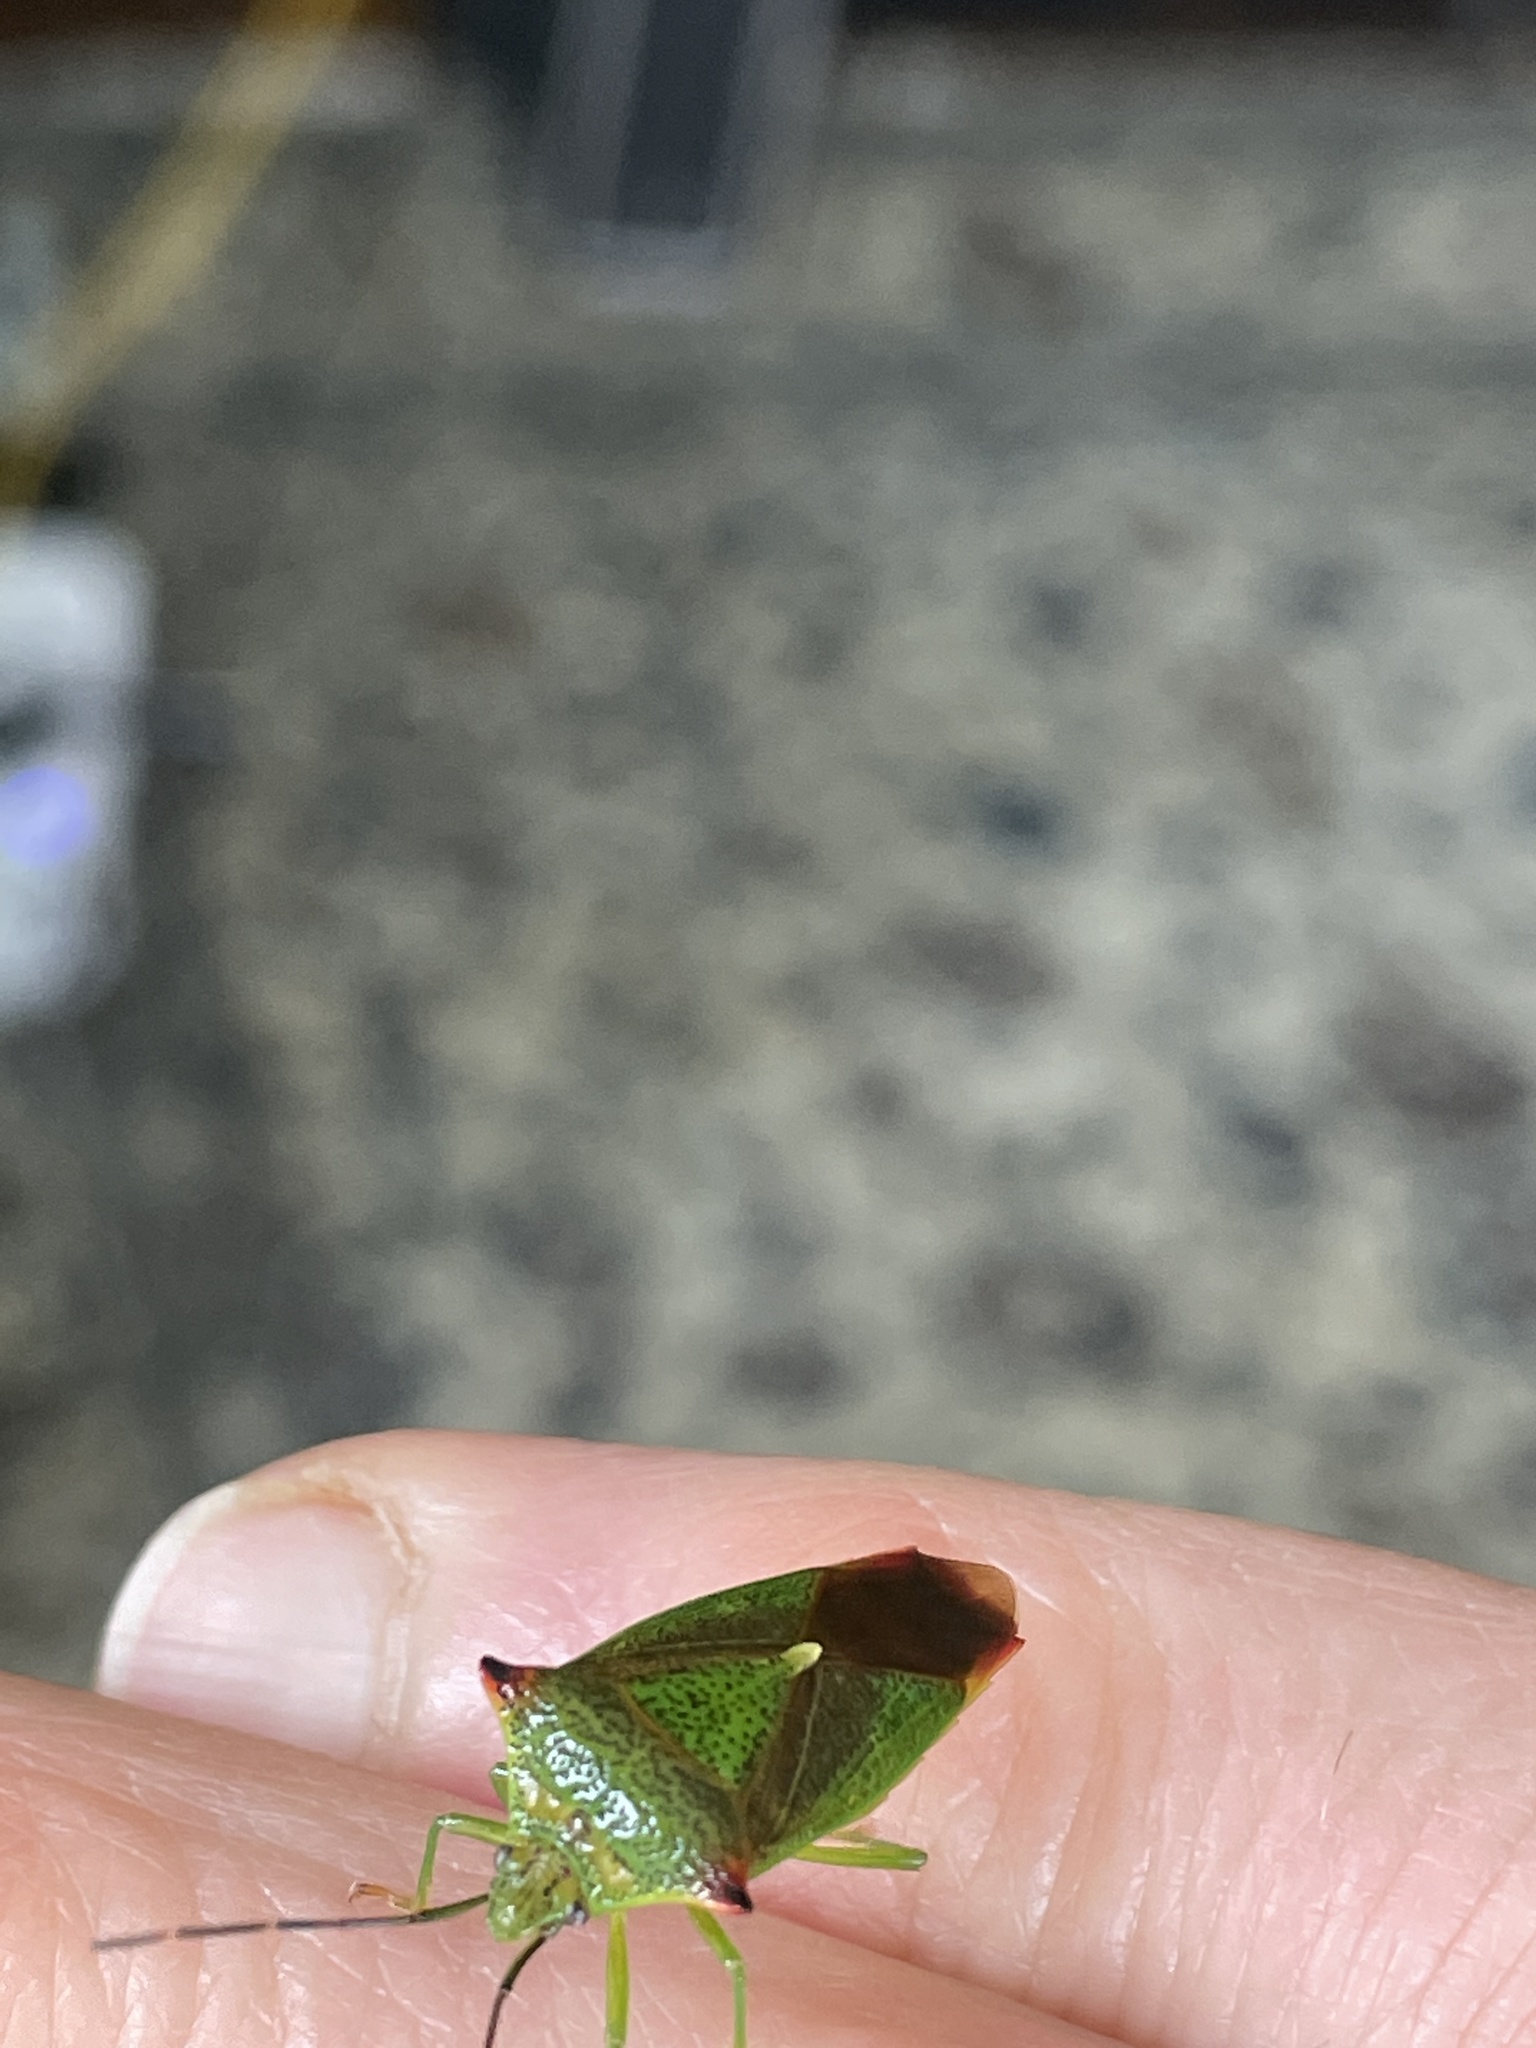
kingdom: Animalia
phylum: Arthropoda
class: Insecta
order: Hemiptera
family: Acanthosomatidae
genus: Acanthosoma
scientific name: Acanthosoma haemorrhoidale
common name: Hawthorn shieldbug
